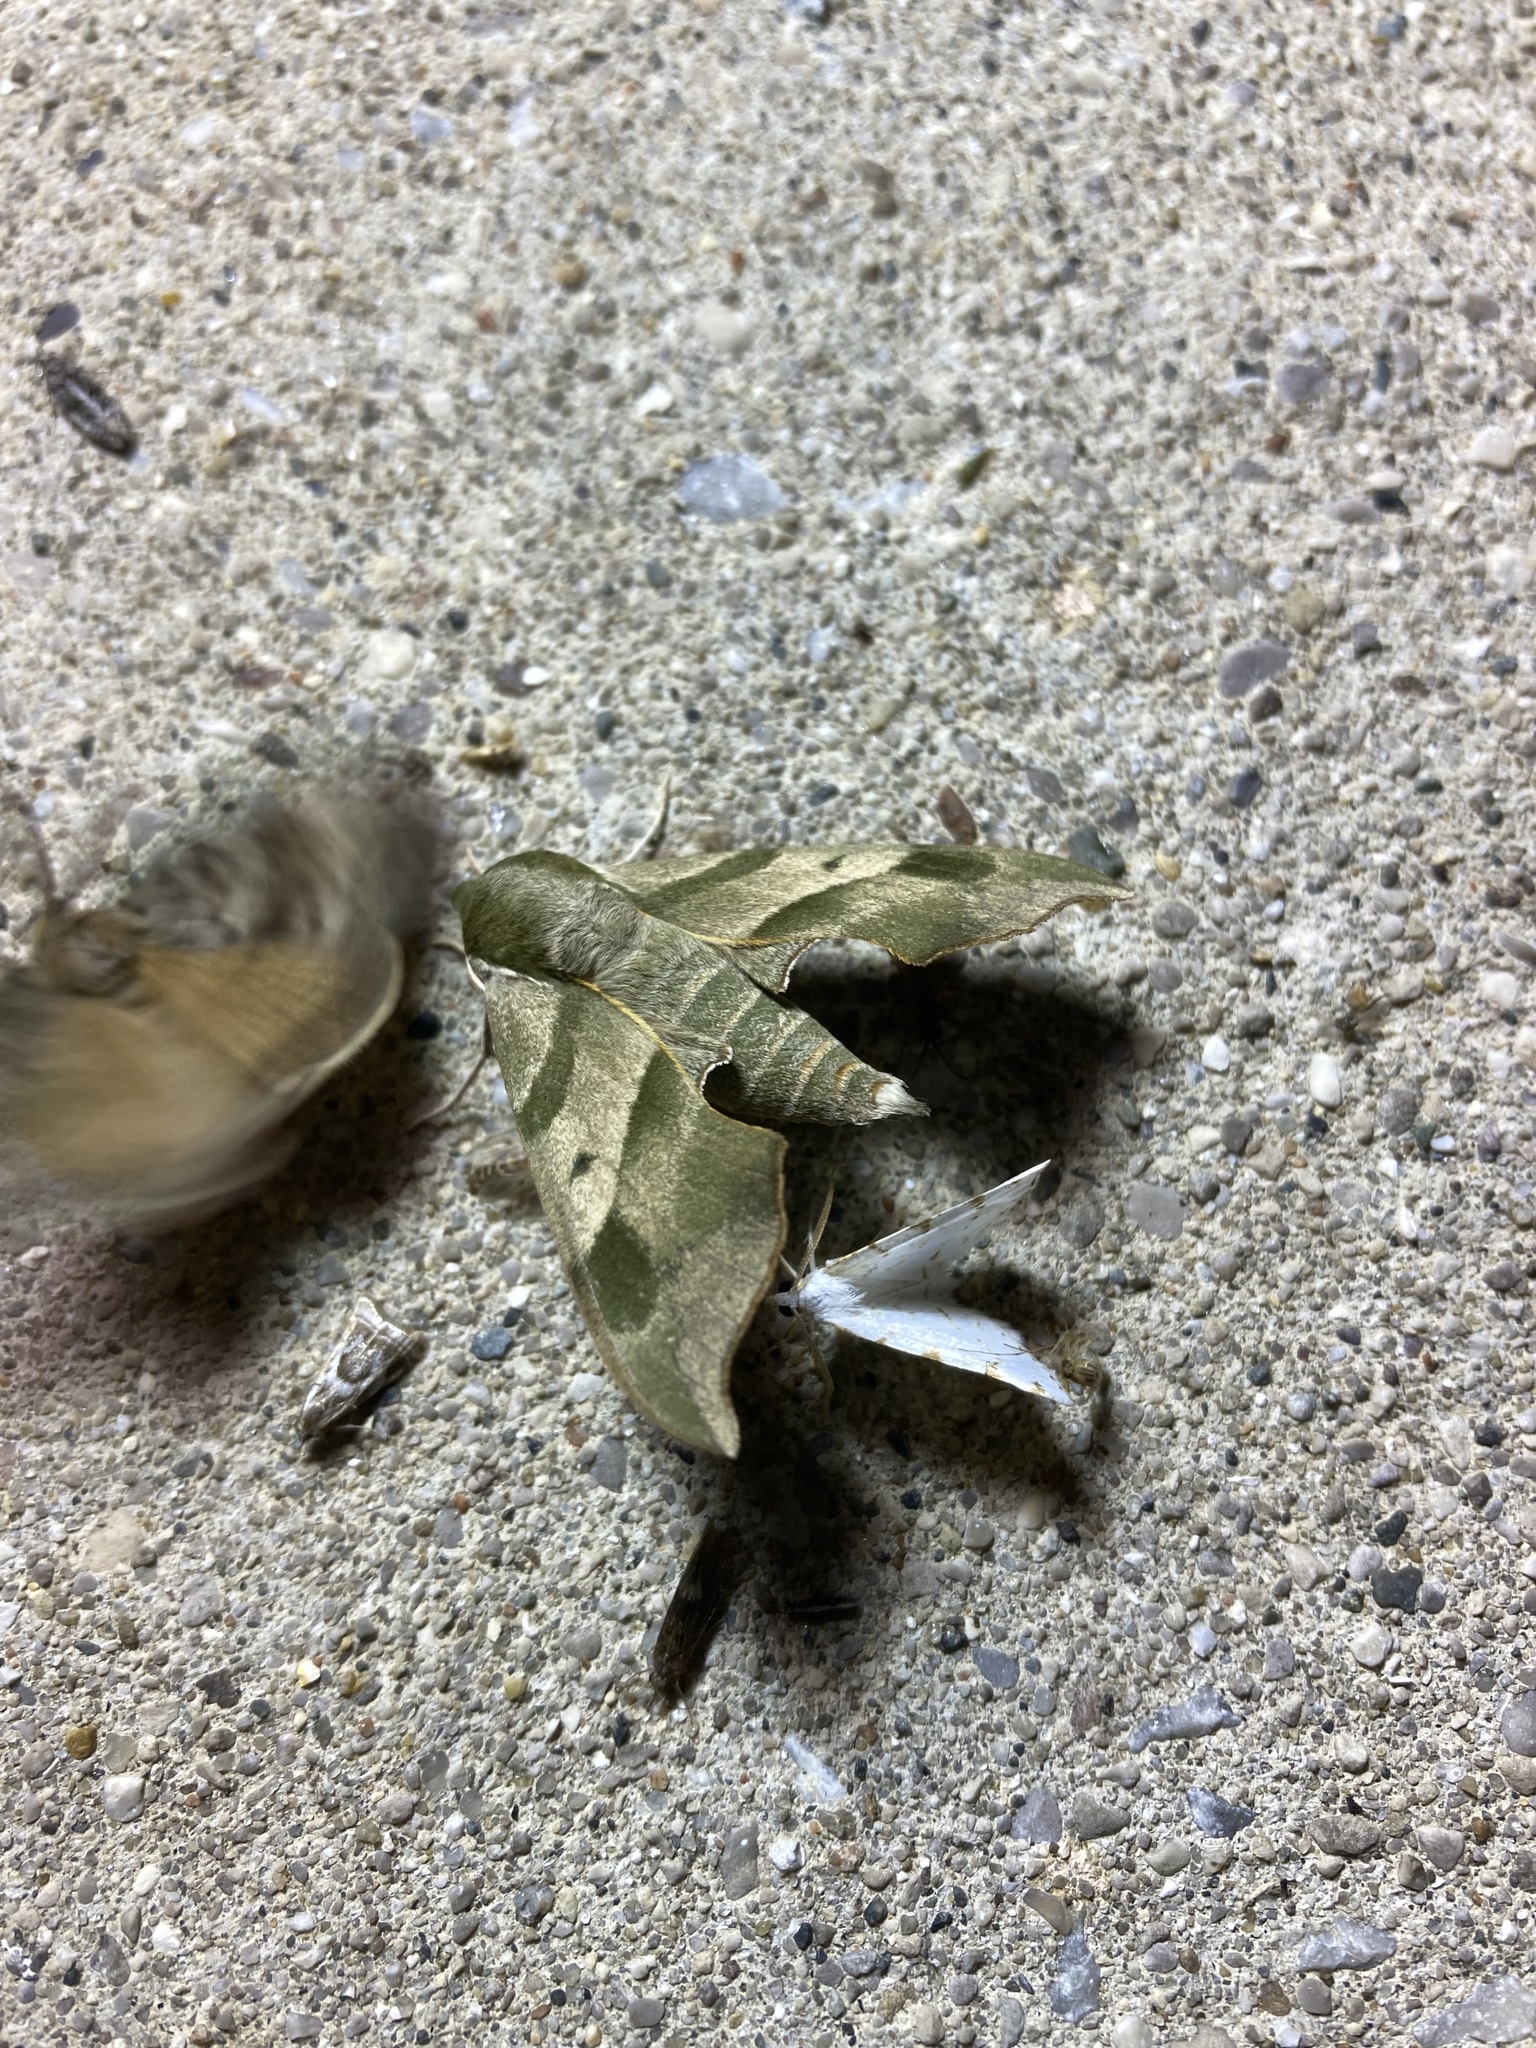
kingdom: Animalia
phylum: Arthropoda
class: Insecta
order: Lepidoptera
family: Sphingidae
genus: Darapsa
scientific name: Darapsa myron
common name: Hog sphinx
